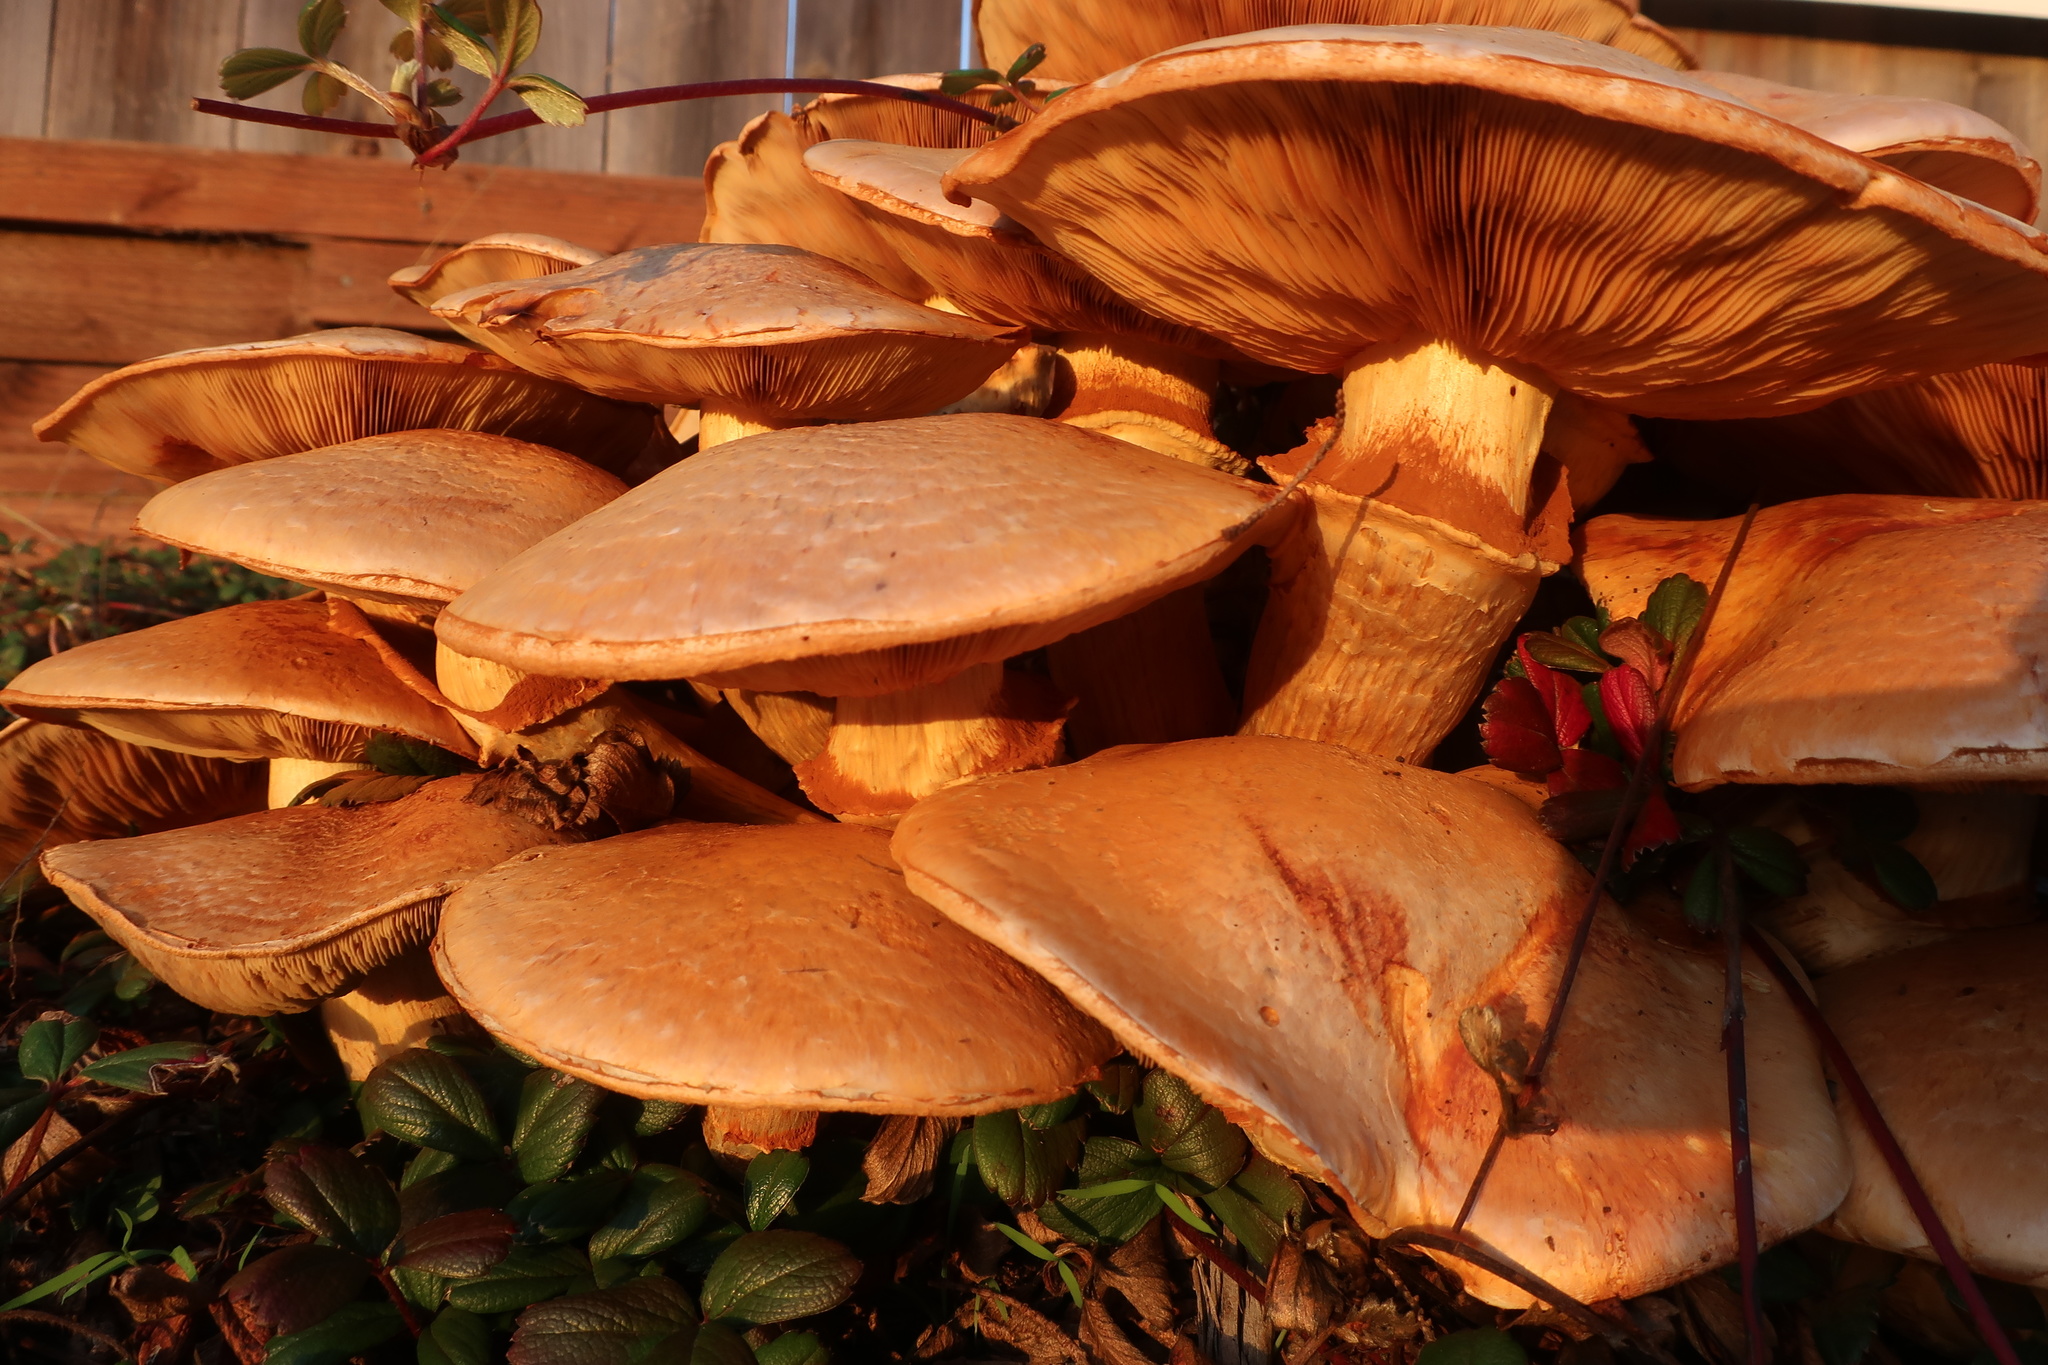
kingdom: Fungi
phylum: Basidiomycota
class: Agaricomycetes
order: Agaricales
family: Hymenogastraceae
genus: Gymnopilus
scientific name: Gymnopilus ventricosus
